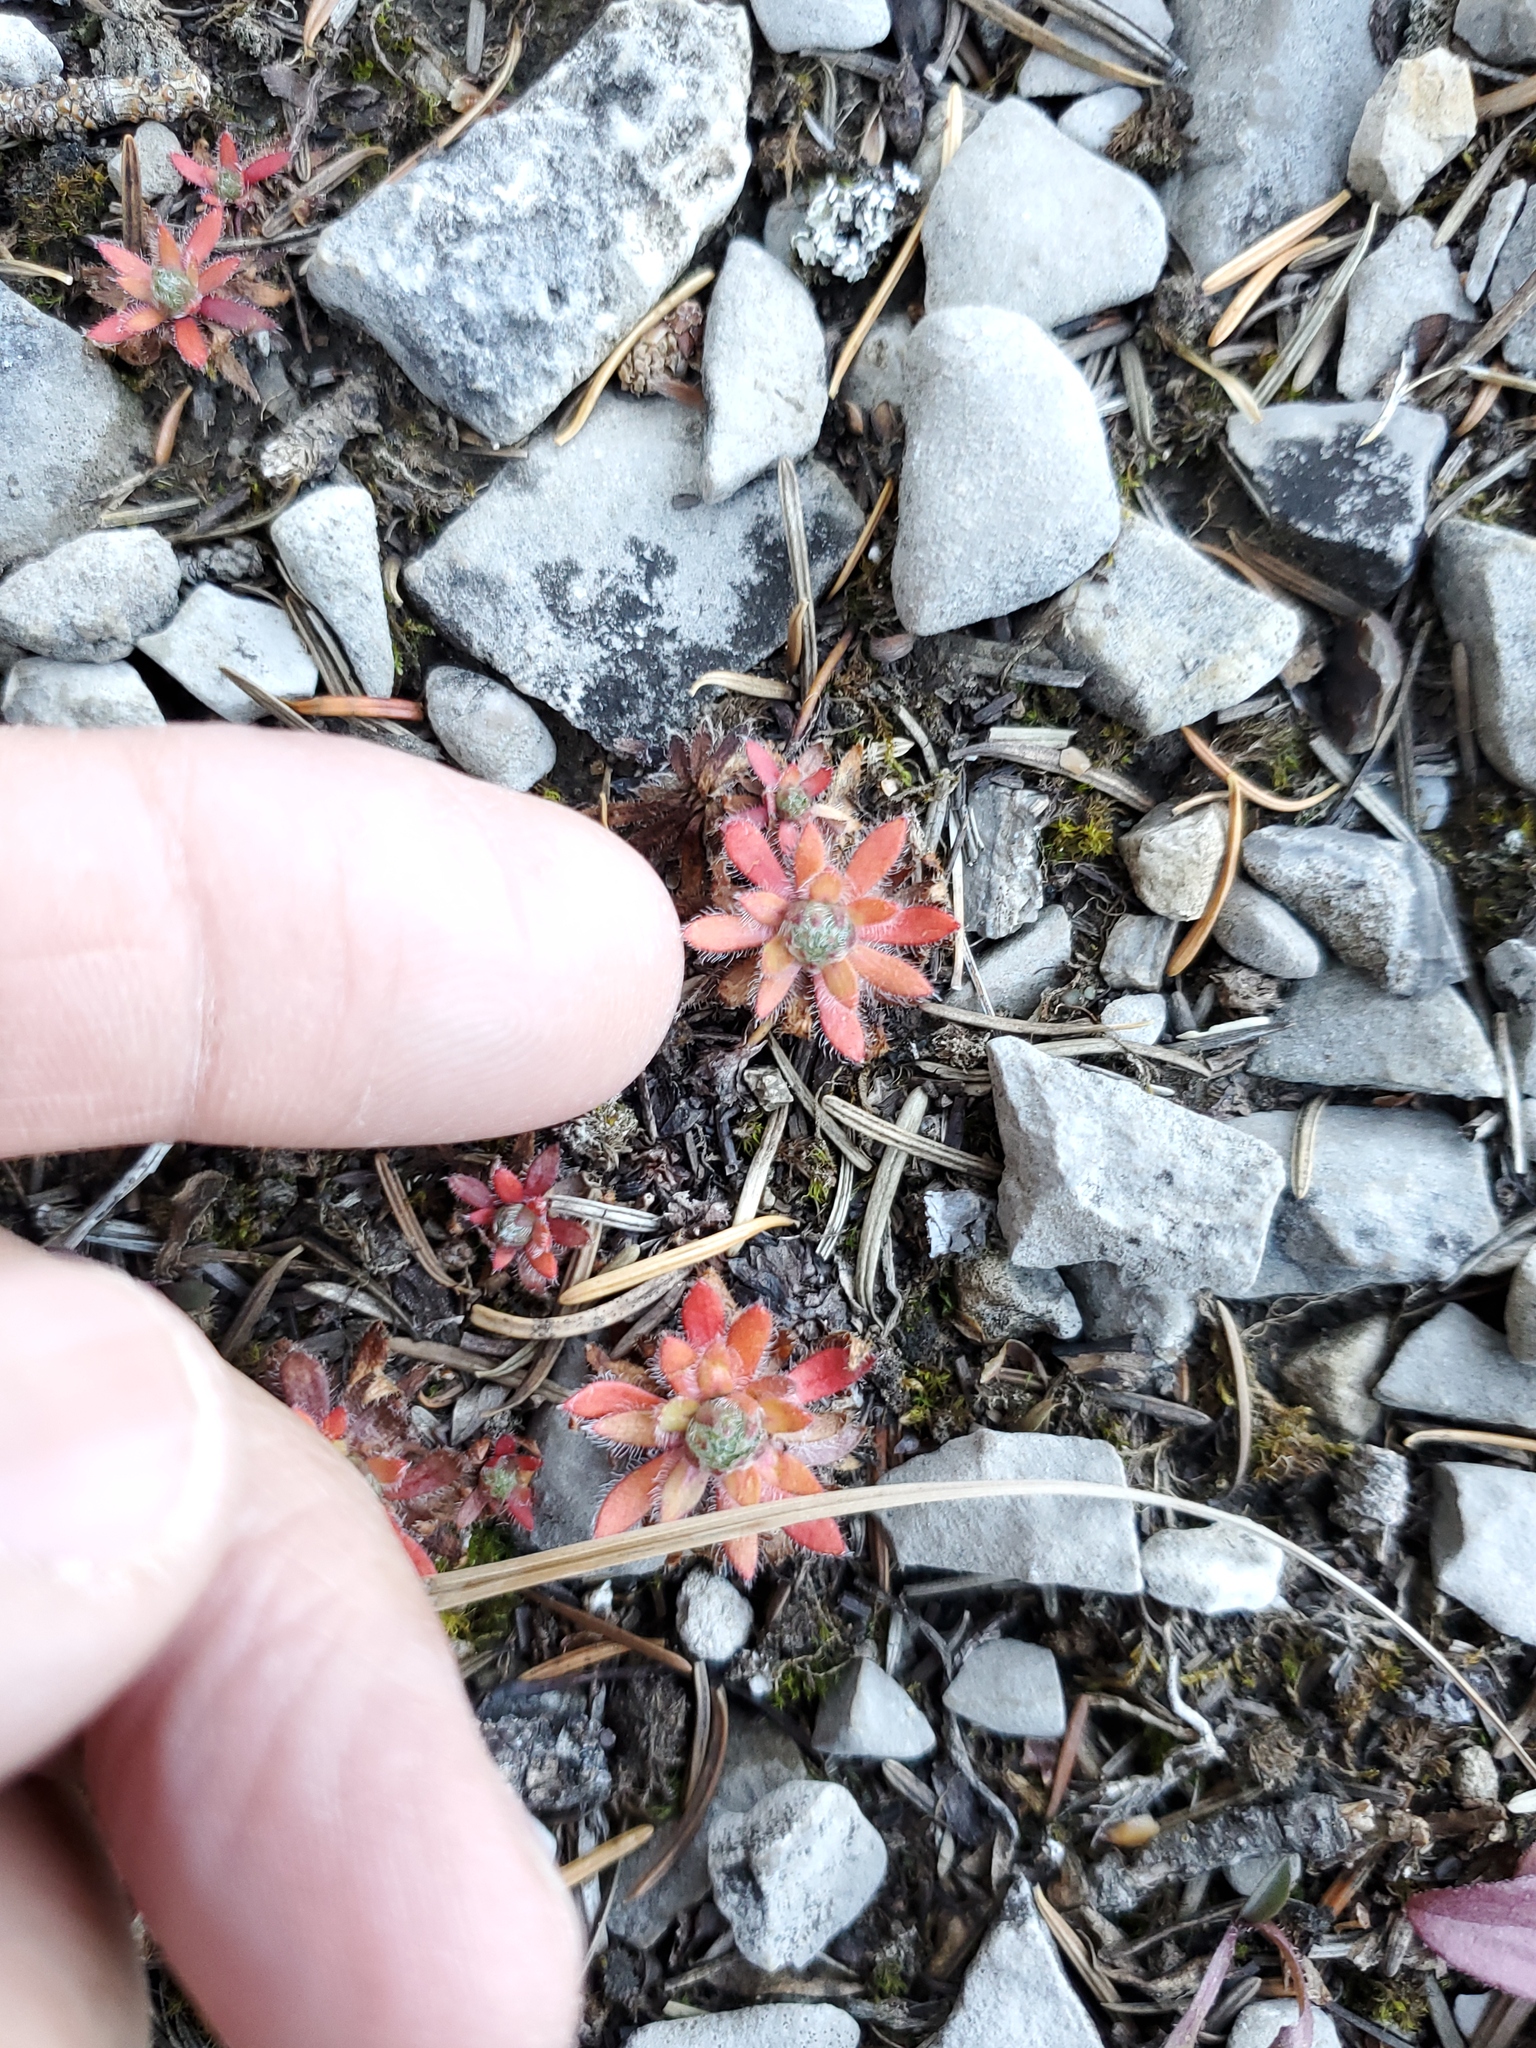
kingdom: Plantae
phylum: Tracheophyta
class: Magnoliopsida
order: Ericales
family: Primulaceae
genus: Androsace
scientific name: Androsace chamaejasme
